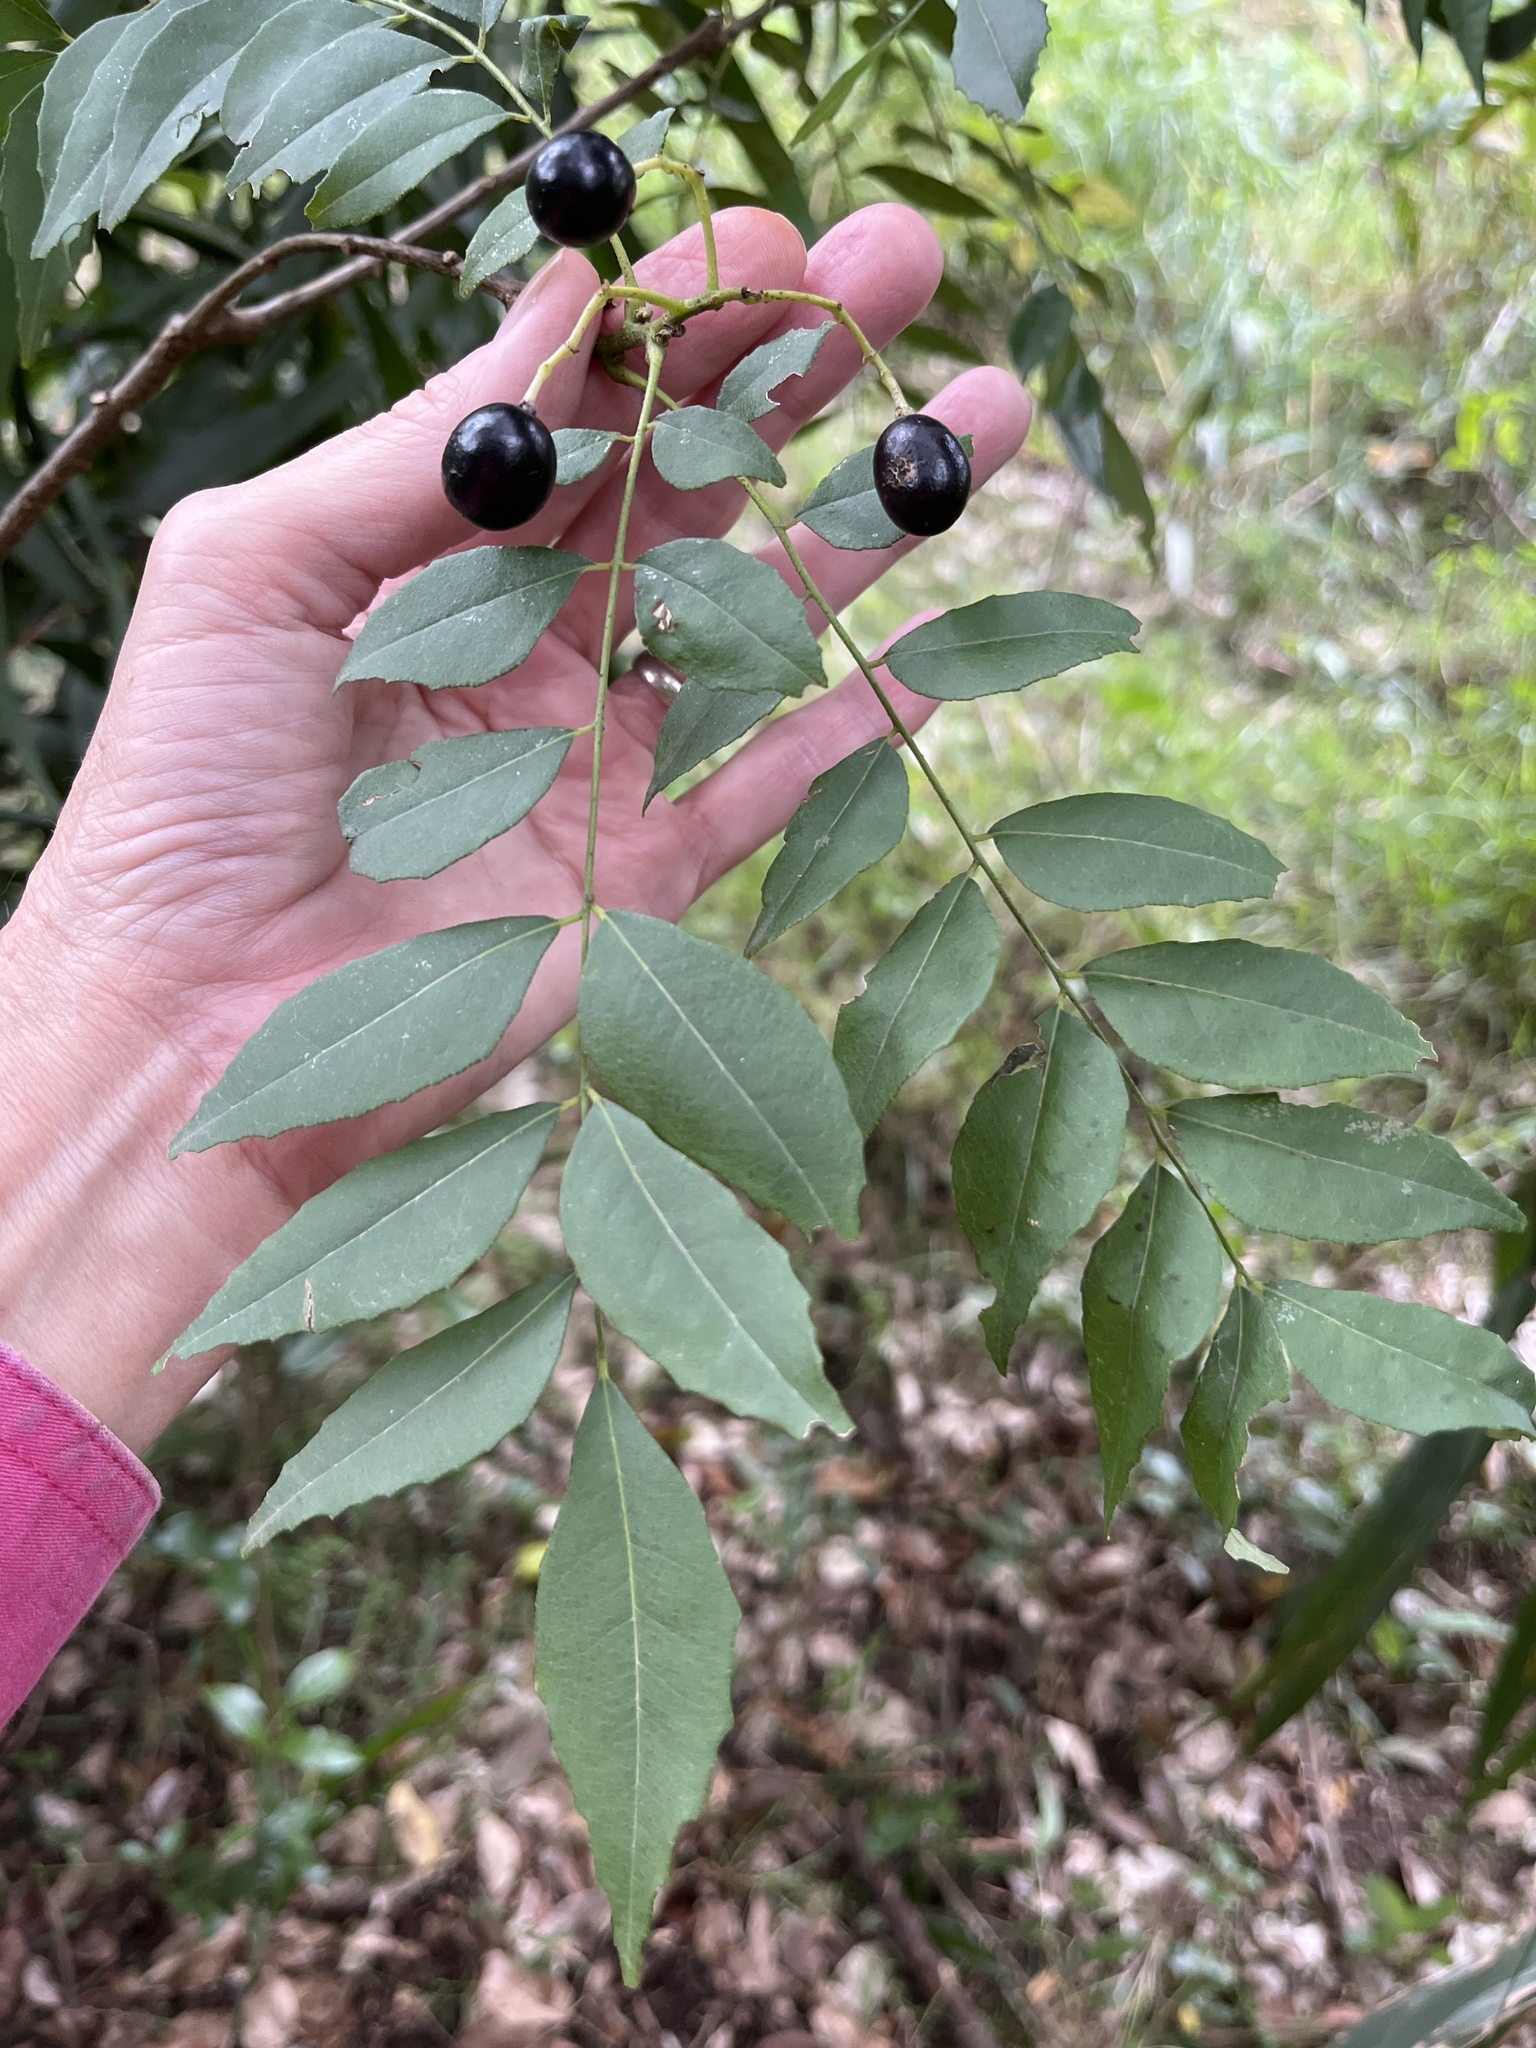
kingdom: Plantae
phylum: Tracheophyta
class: Magnoliopsida
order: Sapindales
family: Rutaceae
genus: Murraya
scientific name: Murraya koenigii
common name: Curry-plant
